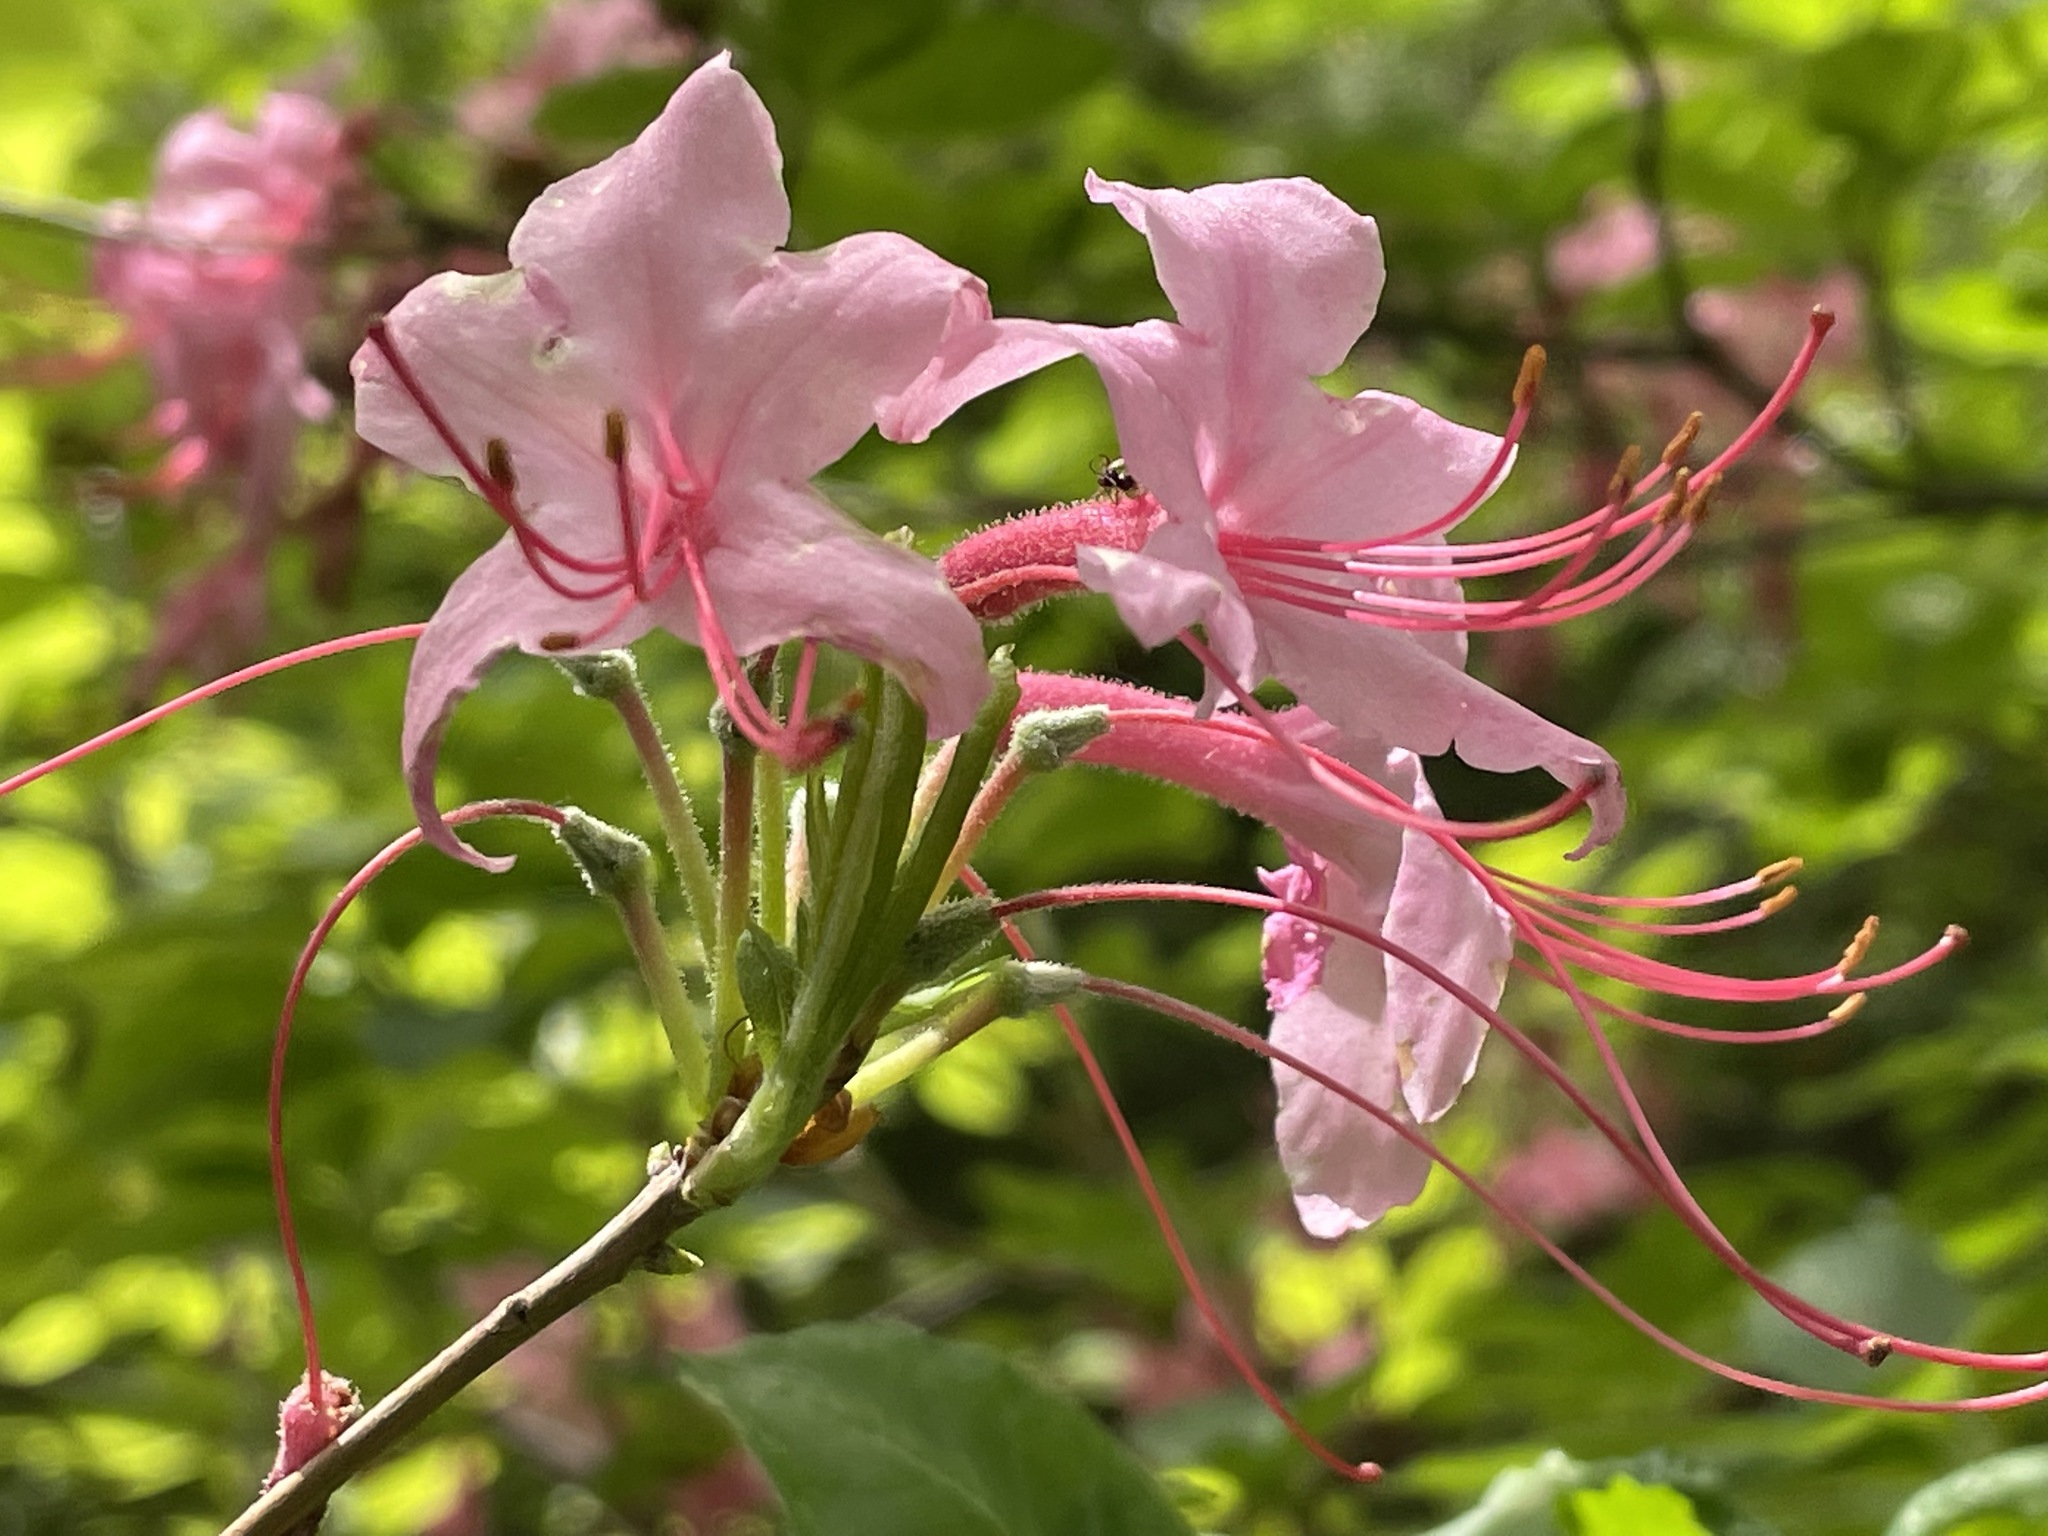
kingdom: Plantae
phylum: Tracheophyta
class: Magnoliopsida
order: Ericales
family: Ericaceae
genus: Rhododendron
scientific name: Rhododendron roseum
